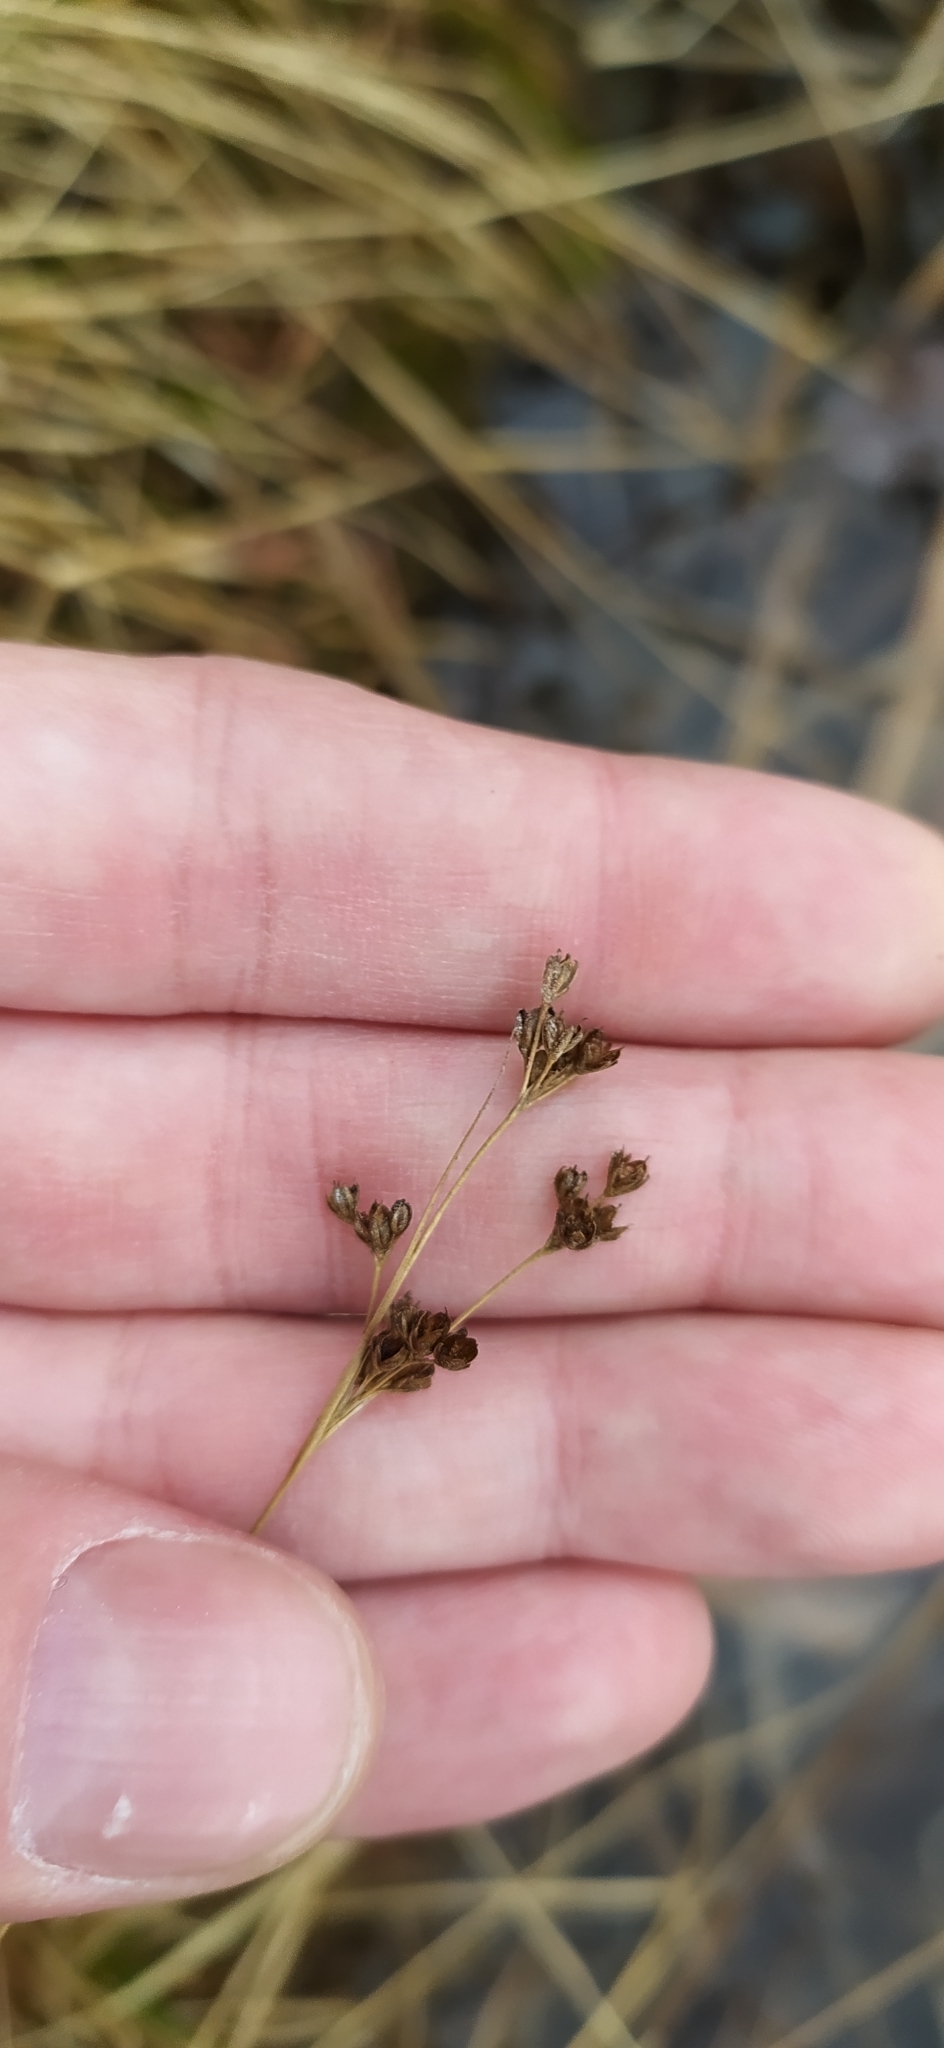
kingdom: Plantae
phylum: Tracheophyta
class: Liliopsida
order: Poales
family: Juncaceae
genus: Juncus
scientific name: Juncus compressus
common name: Round-fruited rush
